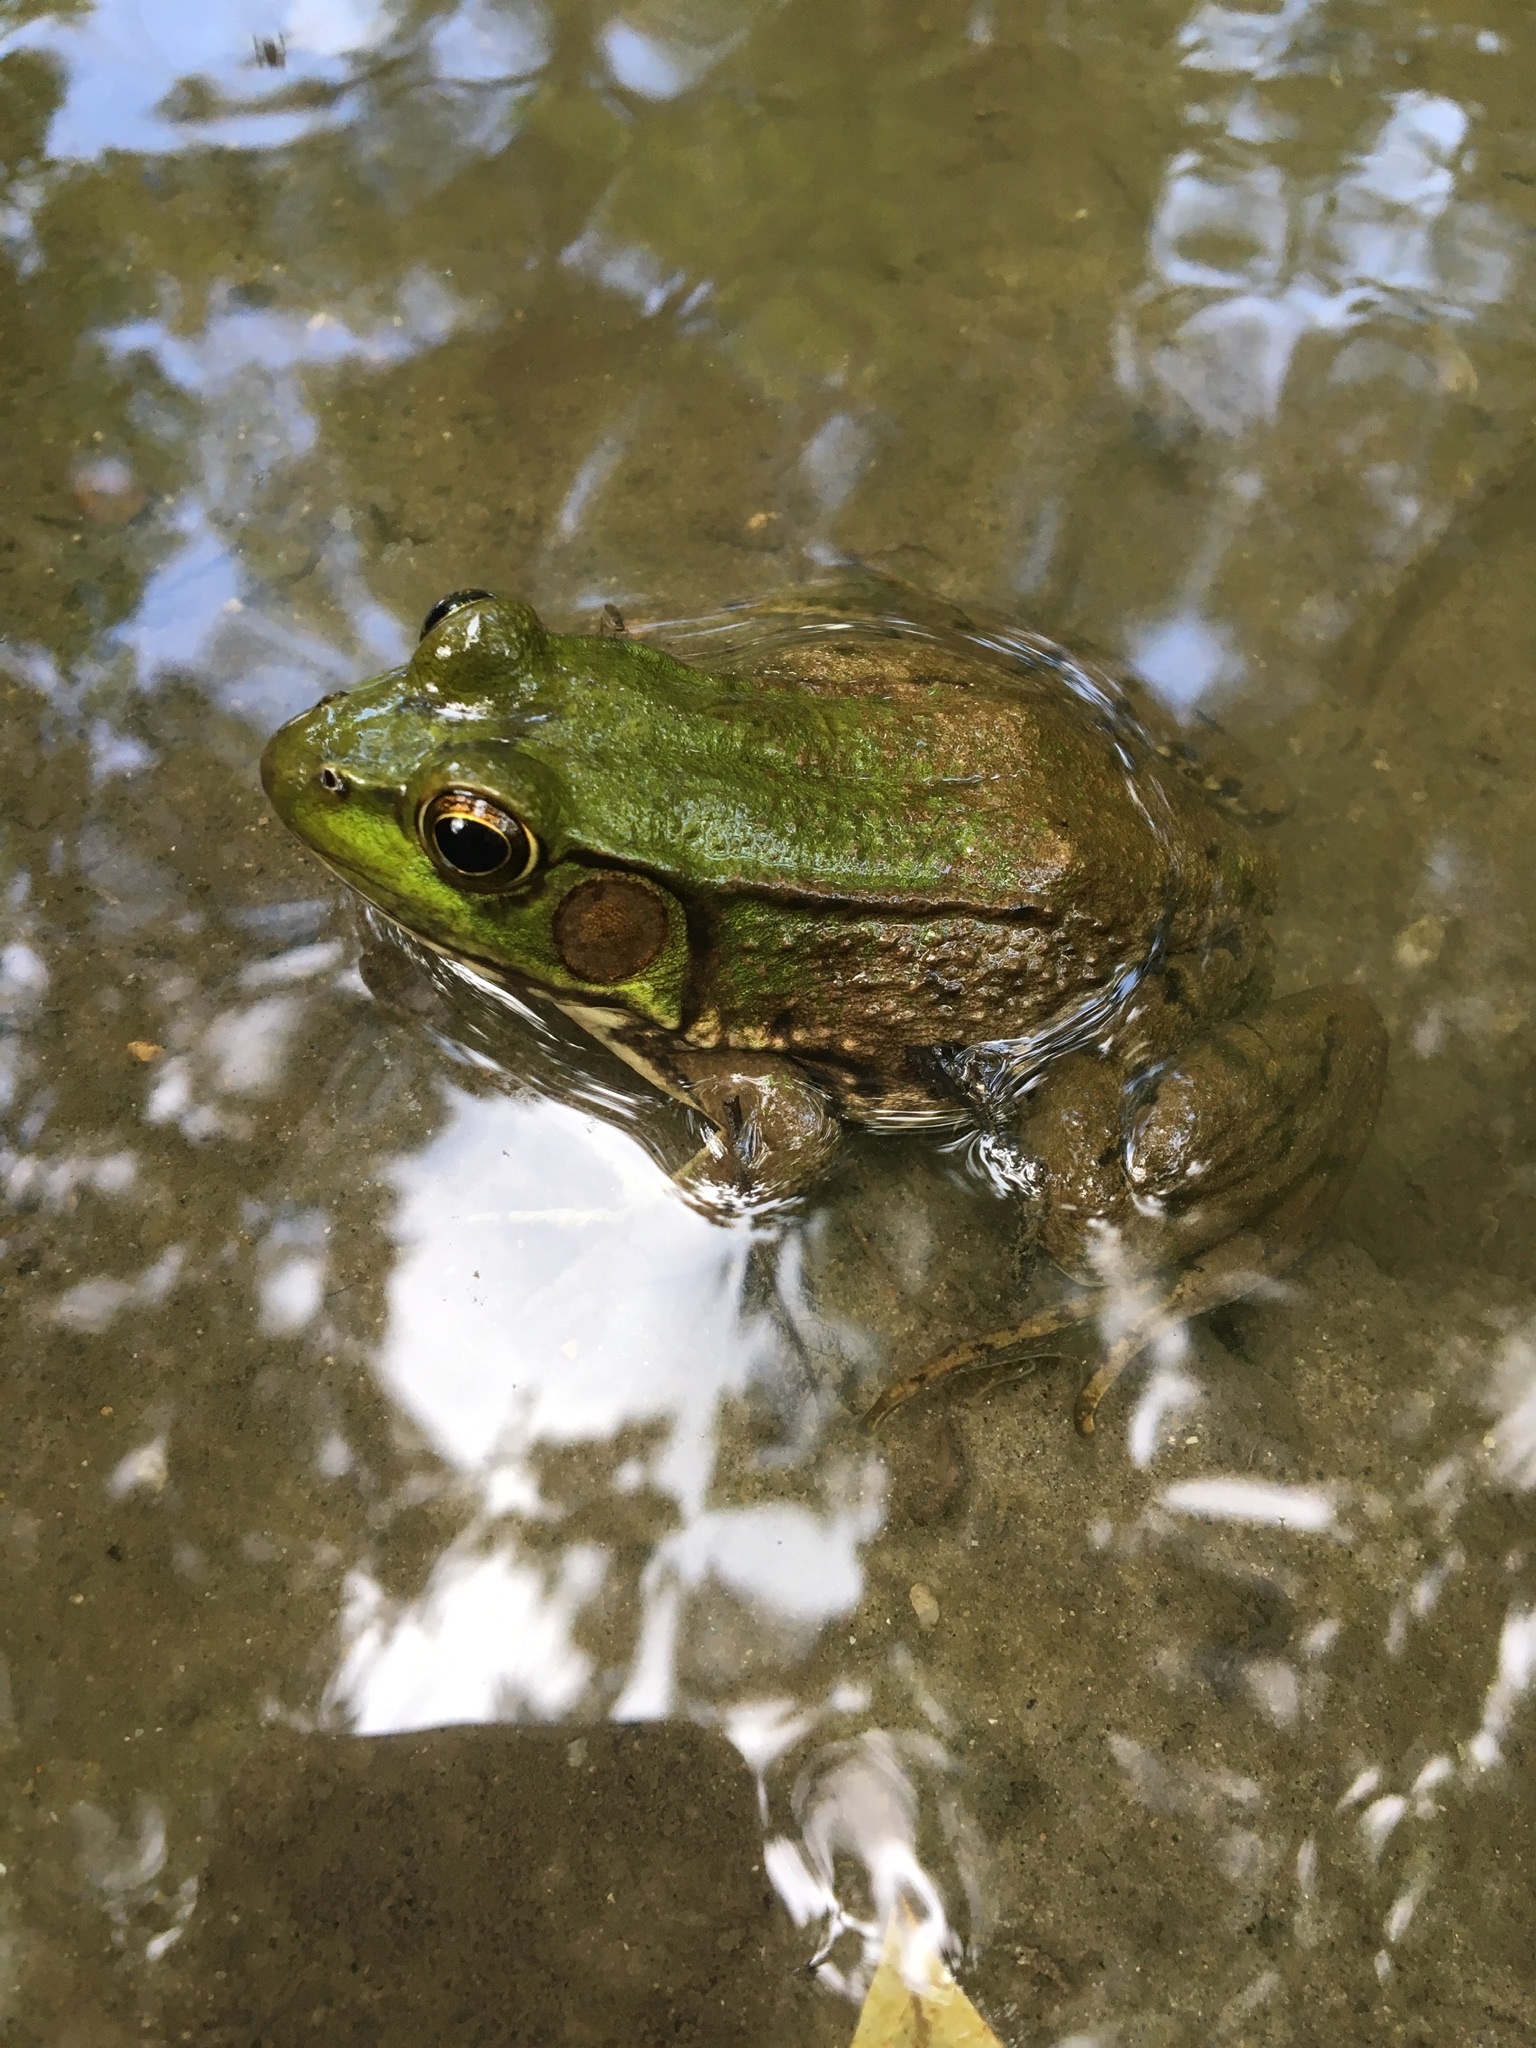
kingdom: Animalia
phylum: Chordata
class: Amphibia
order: Anura
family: Ranidae
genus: Lithobates
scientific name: Lithobates clamitans
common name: Green frog
